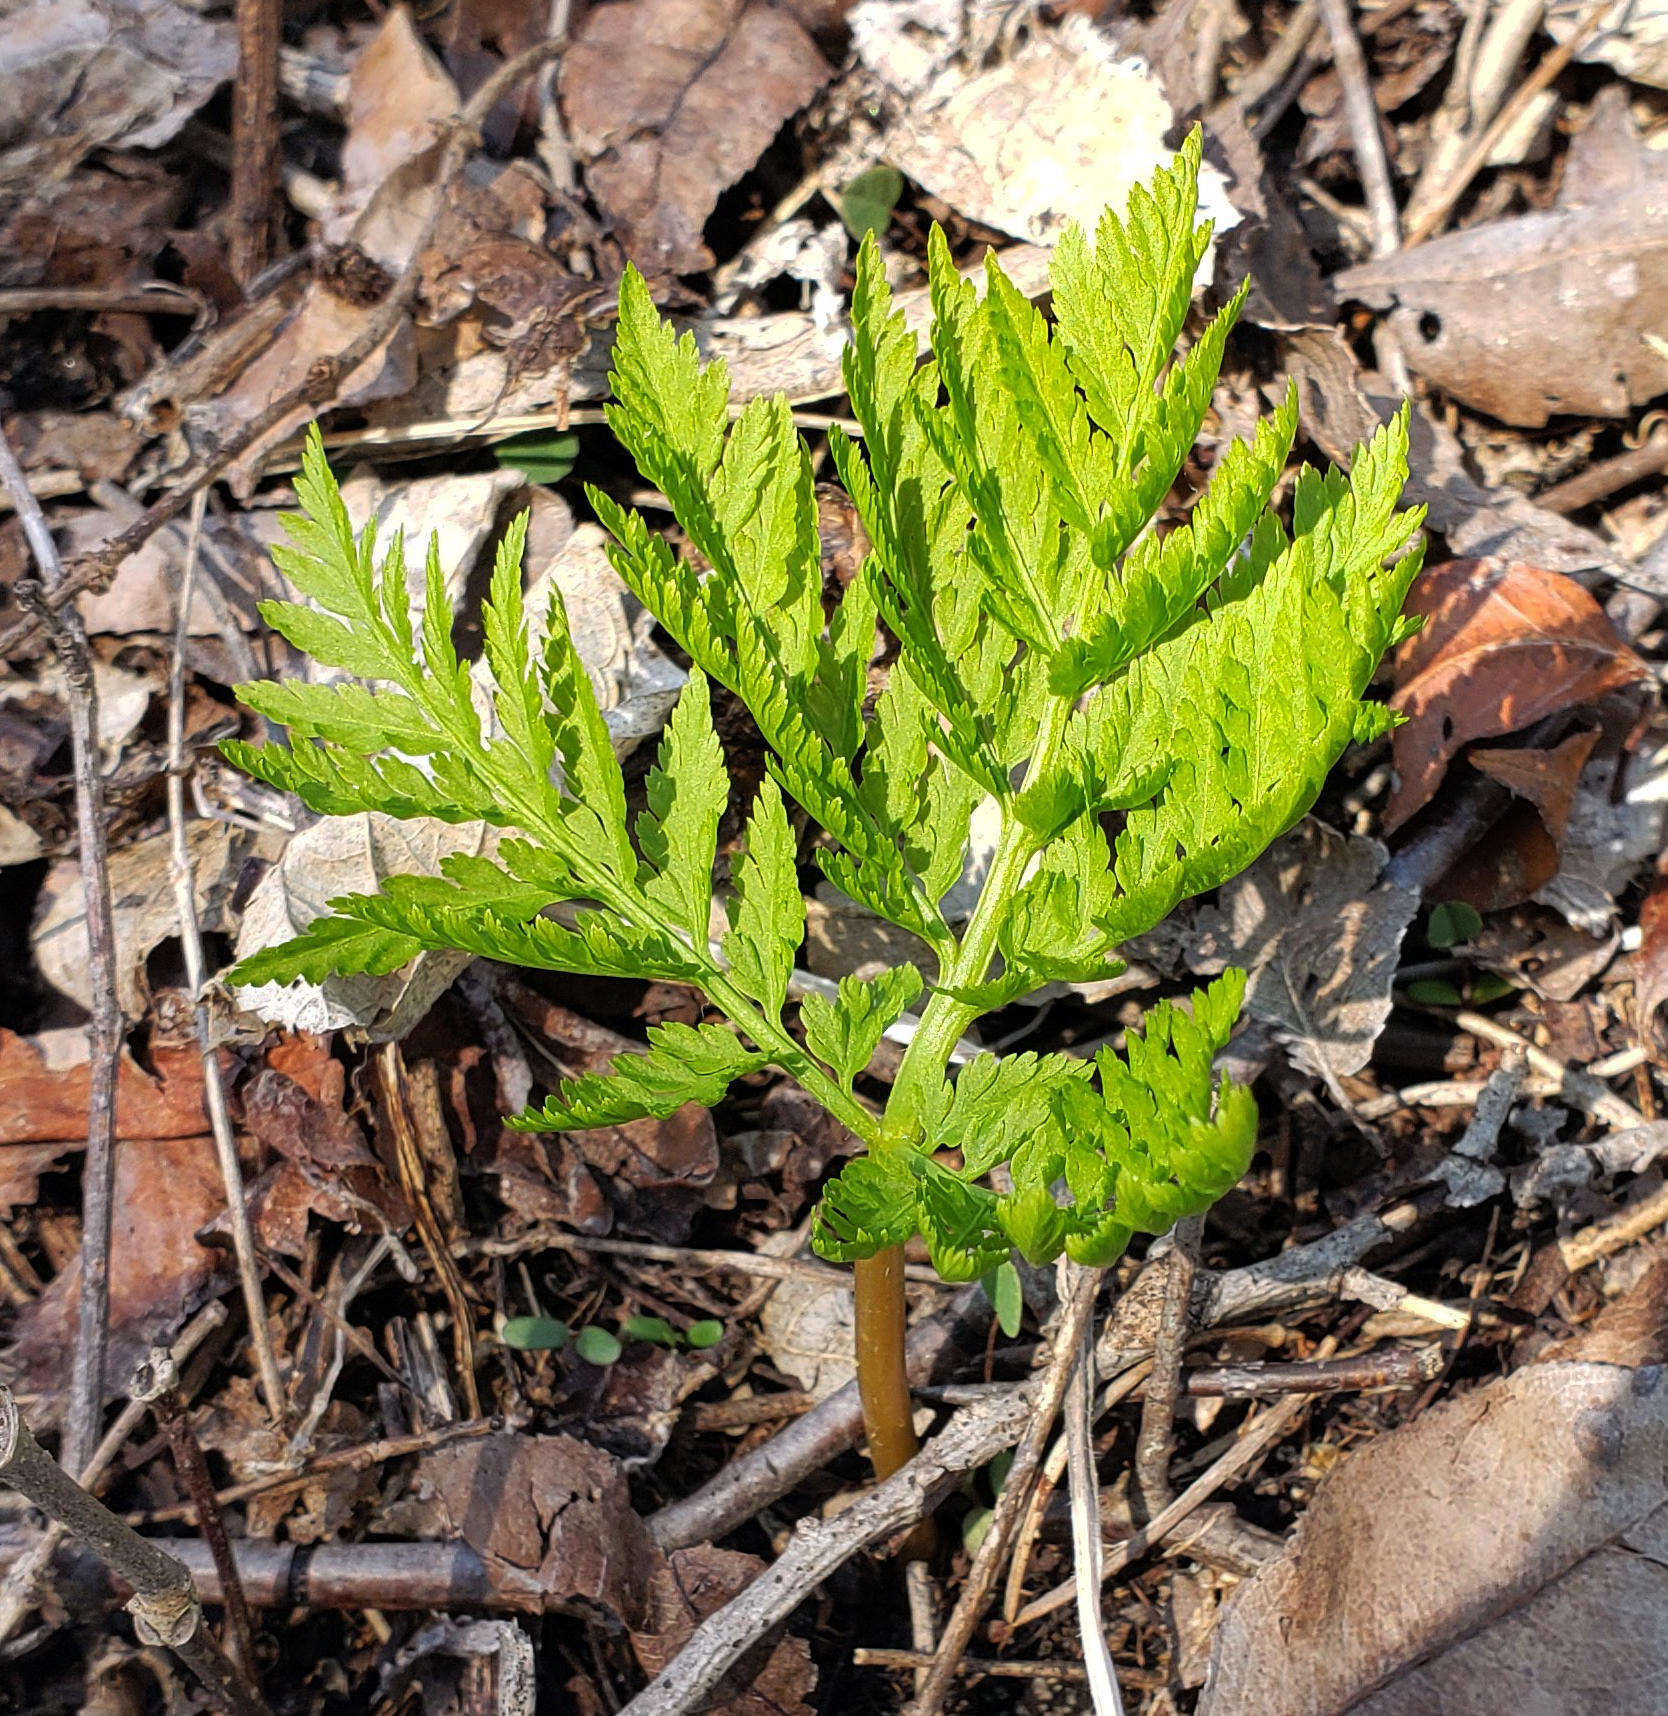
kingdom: Plantae
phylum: Tracheophyta
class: Polypodiopsida
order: Ophioglossales
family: Ophioglossaceae
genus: Botrypus
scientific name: Botrypus virginianus
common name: Common grapefern
